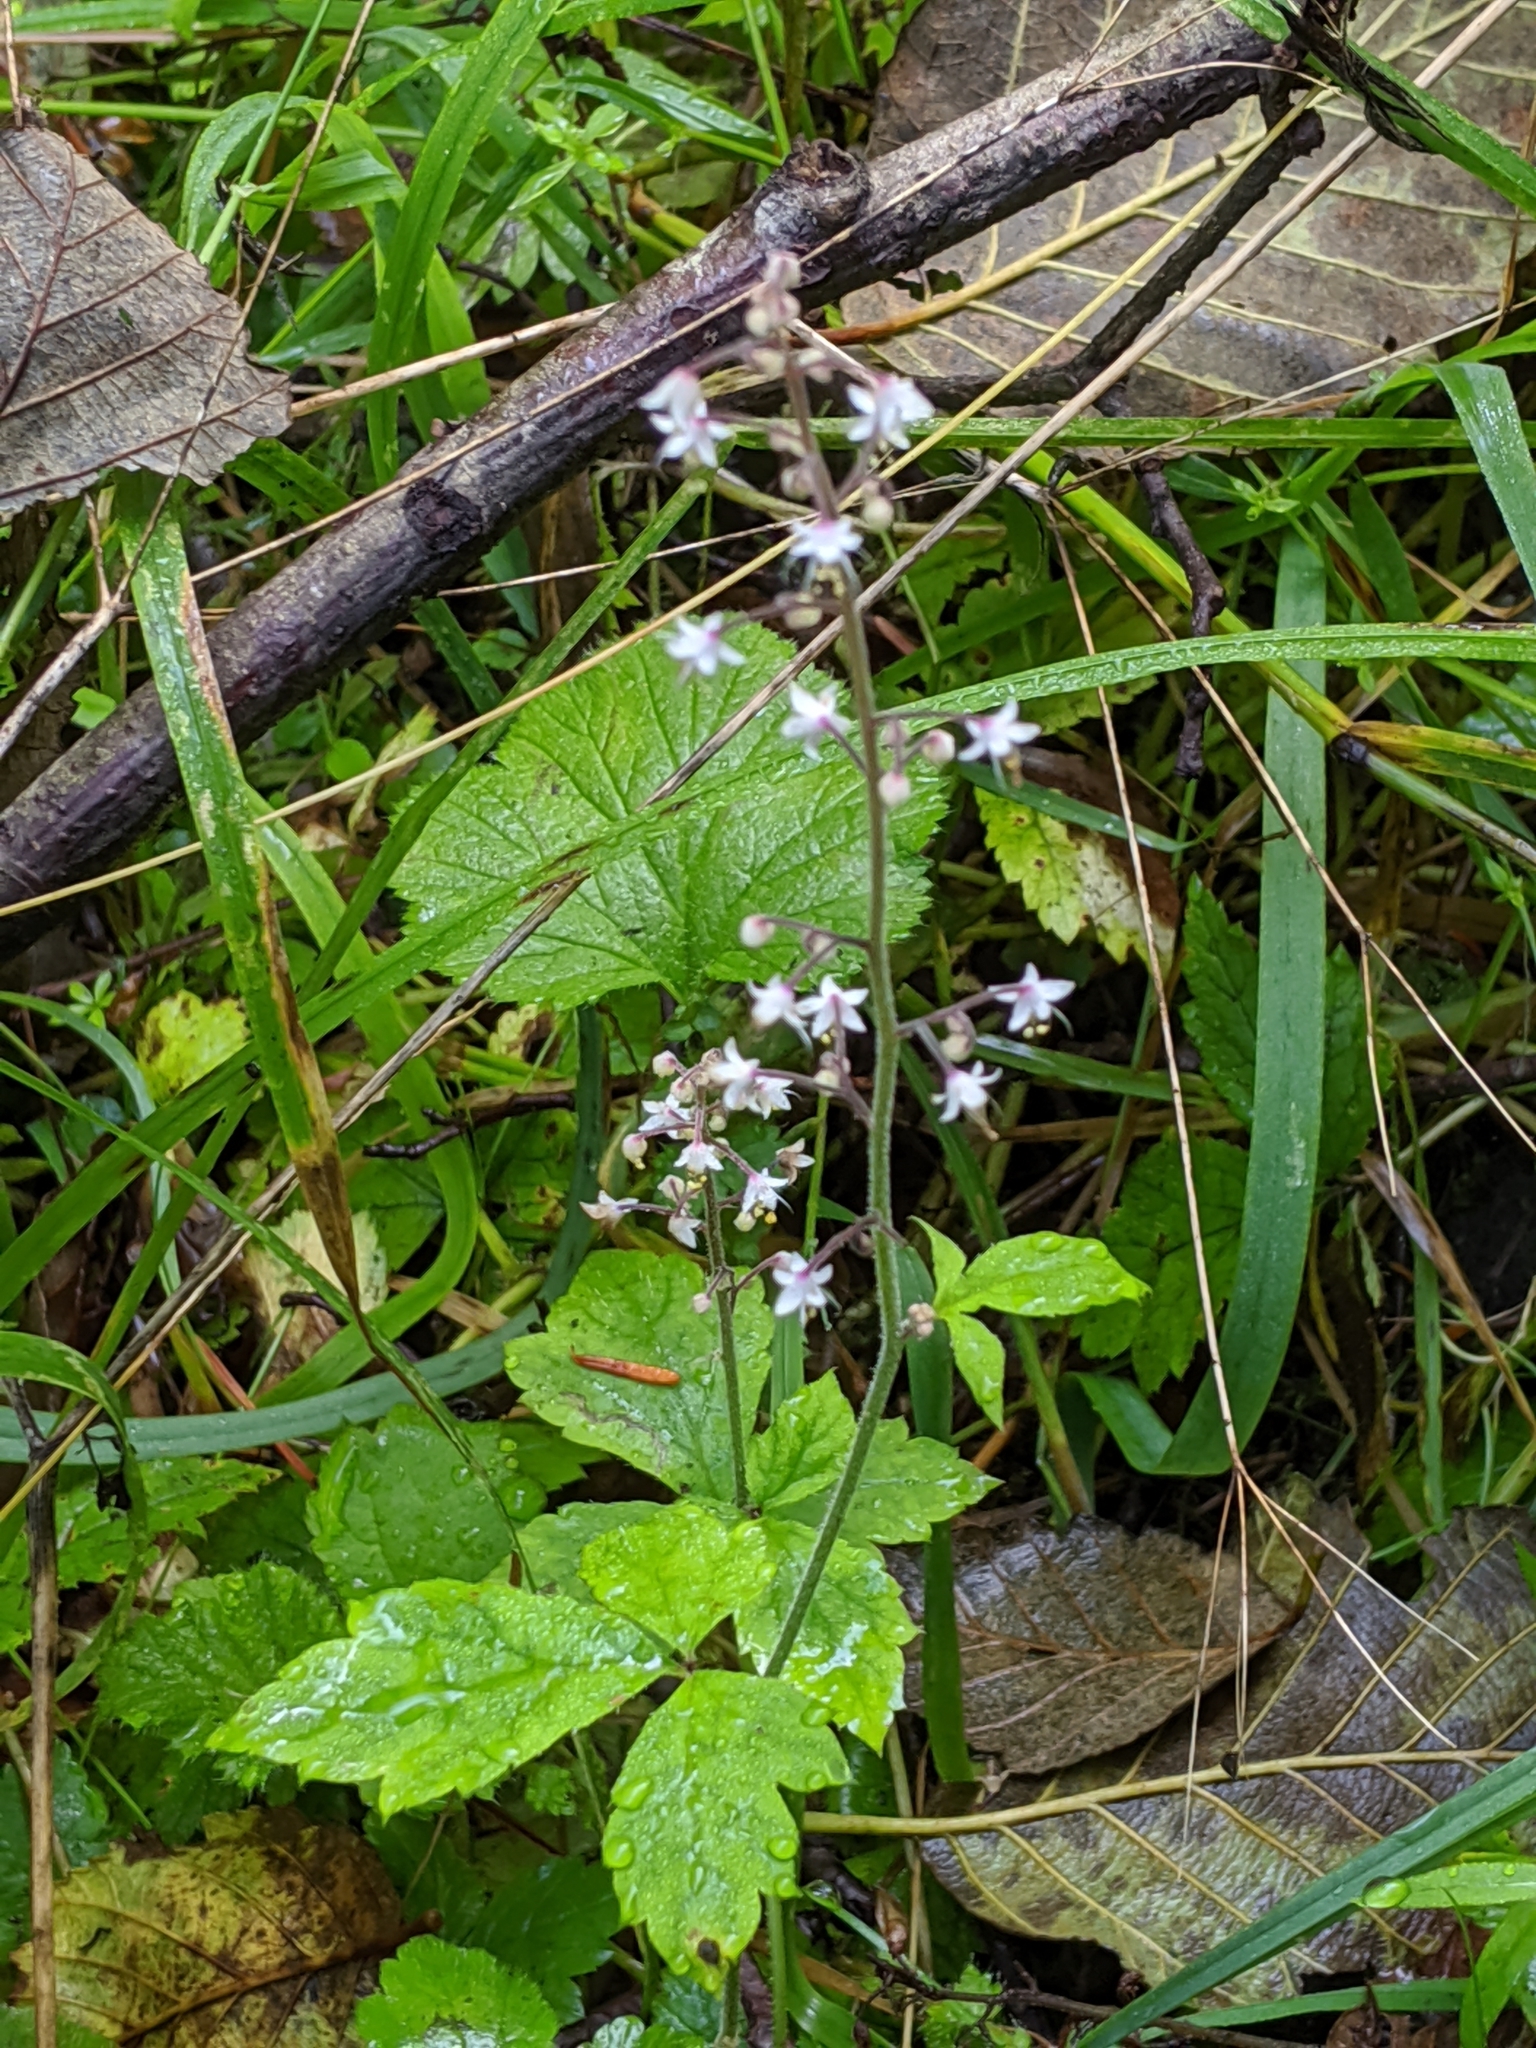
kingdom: Plantae
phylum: Tracheophyta
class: Magnoliopsida
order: Saxifragales
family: Saxifragaceae
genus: Tiarella
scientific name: Tiarella trifoliata
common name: Sugar-scoop
